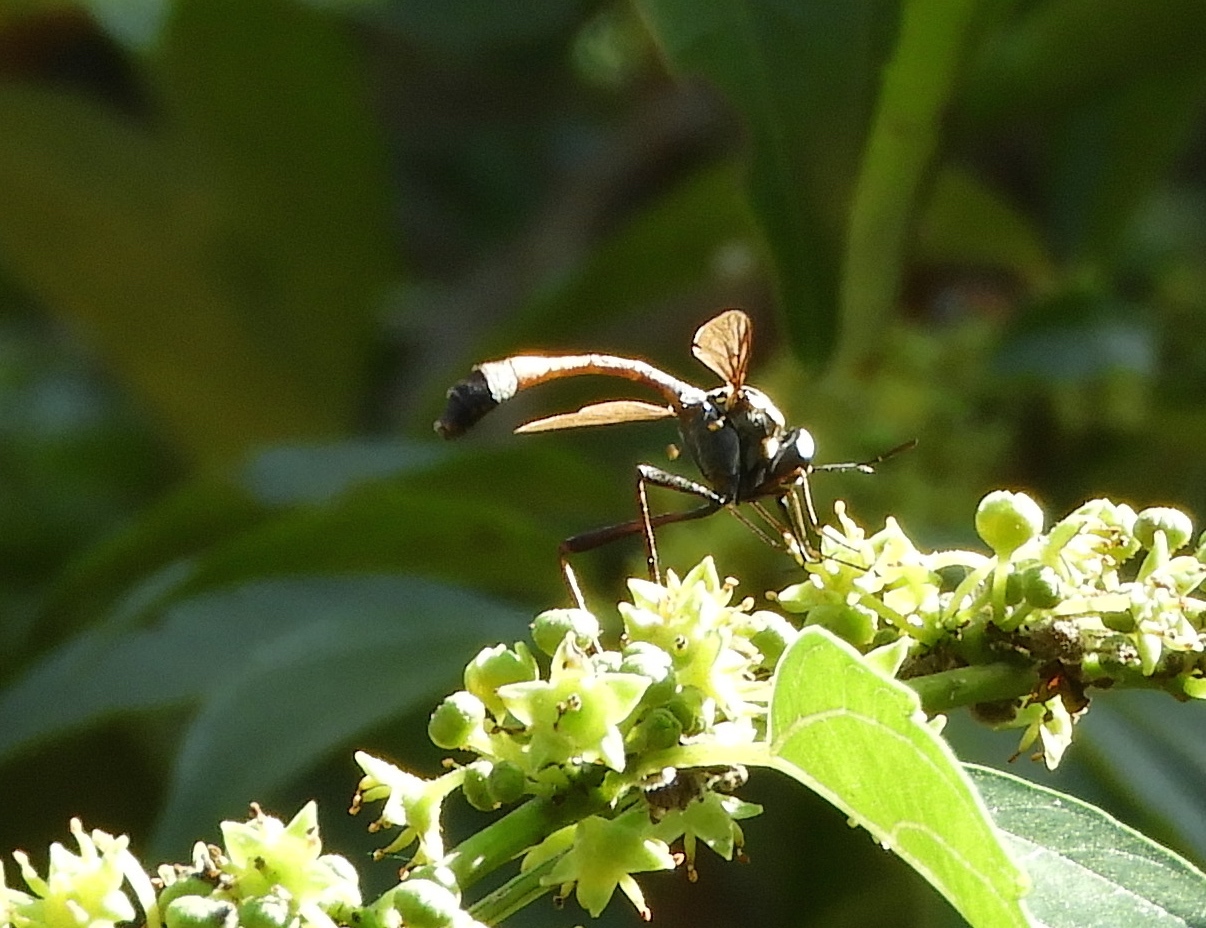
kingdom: Animalia
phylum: Arthropoda
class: Insecta
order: Diptera
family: Bombyliidae
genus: Systropus
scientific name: Systropus
